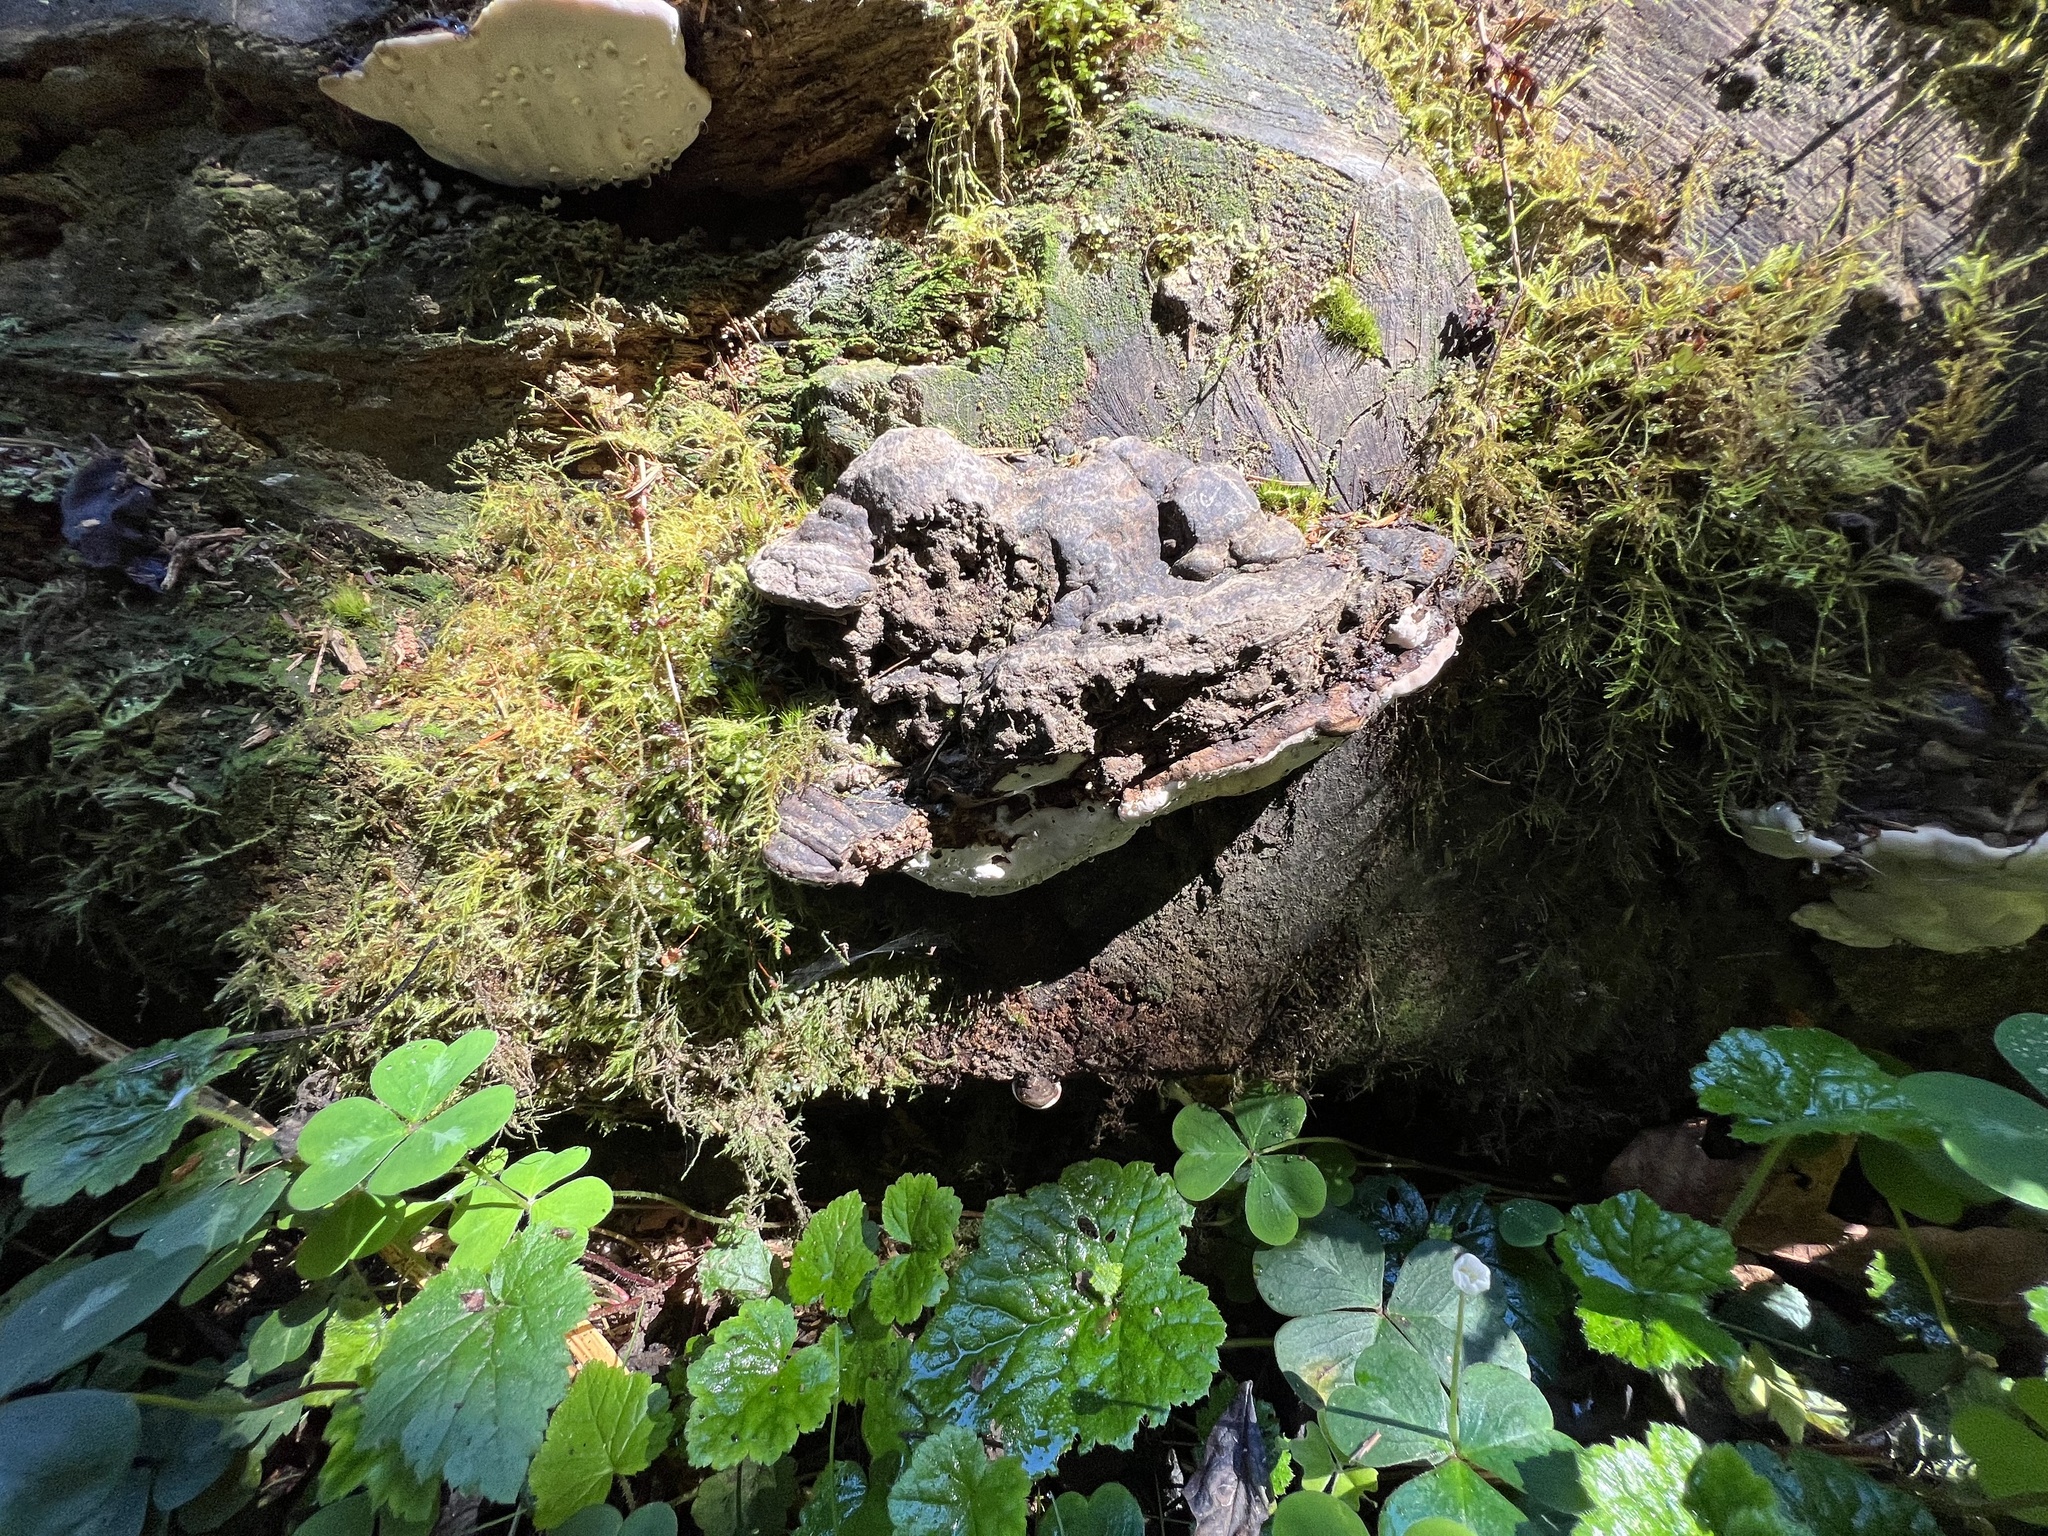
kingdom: Fungi
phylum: Basidiomycota
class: Agaricomycetes
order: Polyporales
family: Fomitopsidaceae
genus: Fomitopsis
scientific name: Fomitopsis ochracea
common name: American brown fomitopsis
